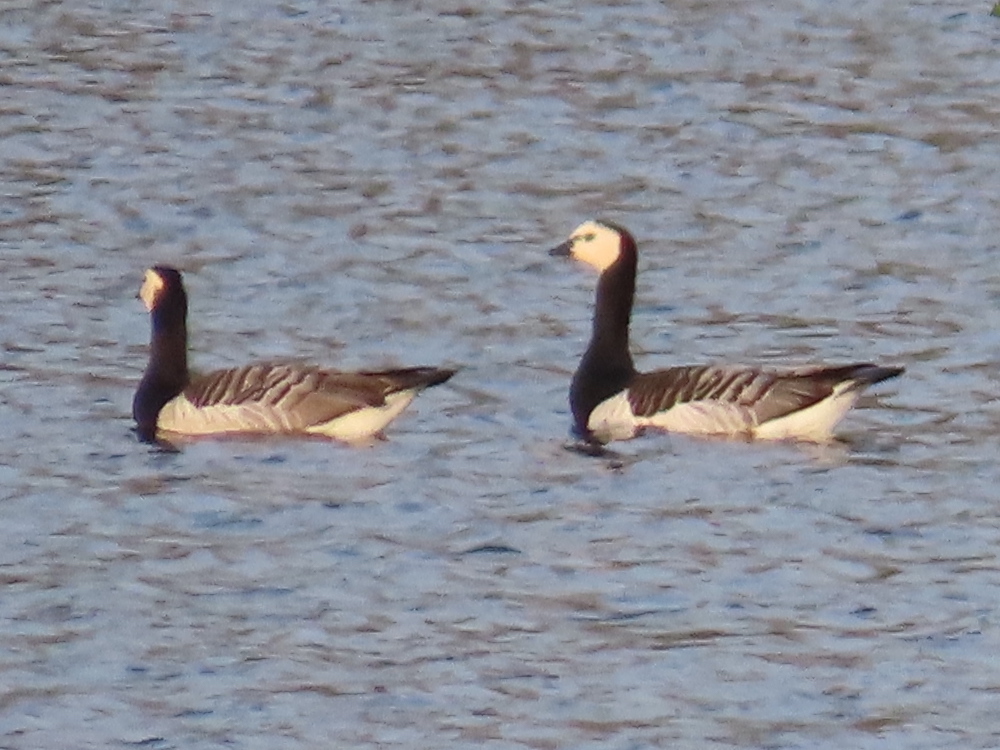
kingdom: Animalia
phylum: Chordata
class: Aves
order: Anseriformes
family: Anatidae
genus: Branta
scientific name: Branta leucopsis
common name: Barnacle goose
